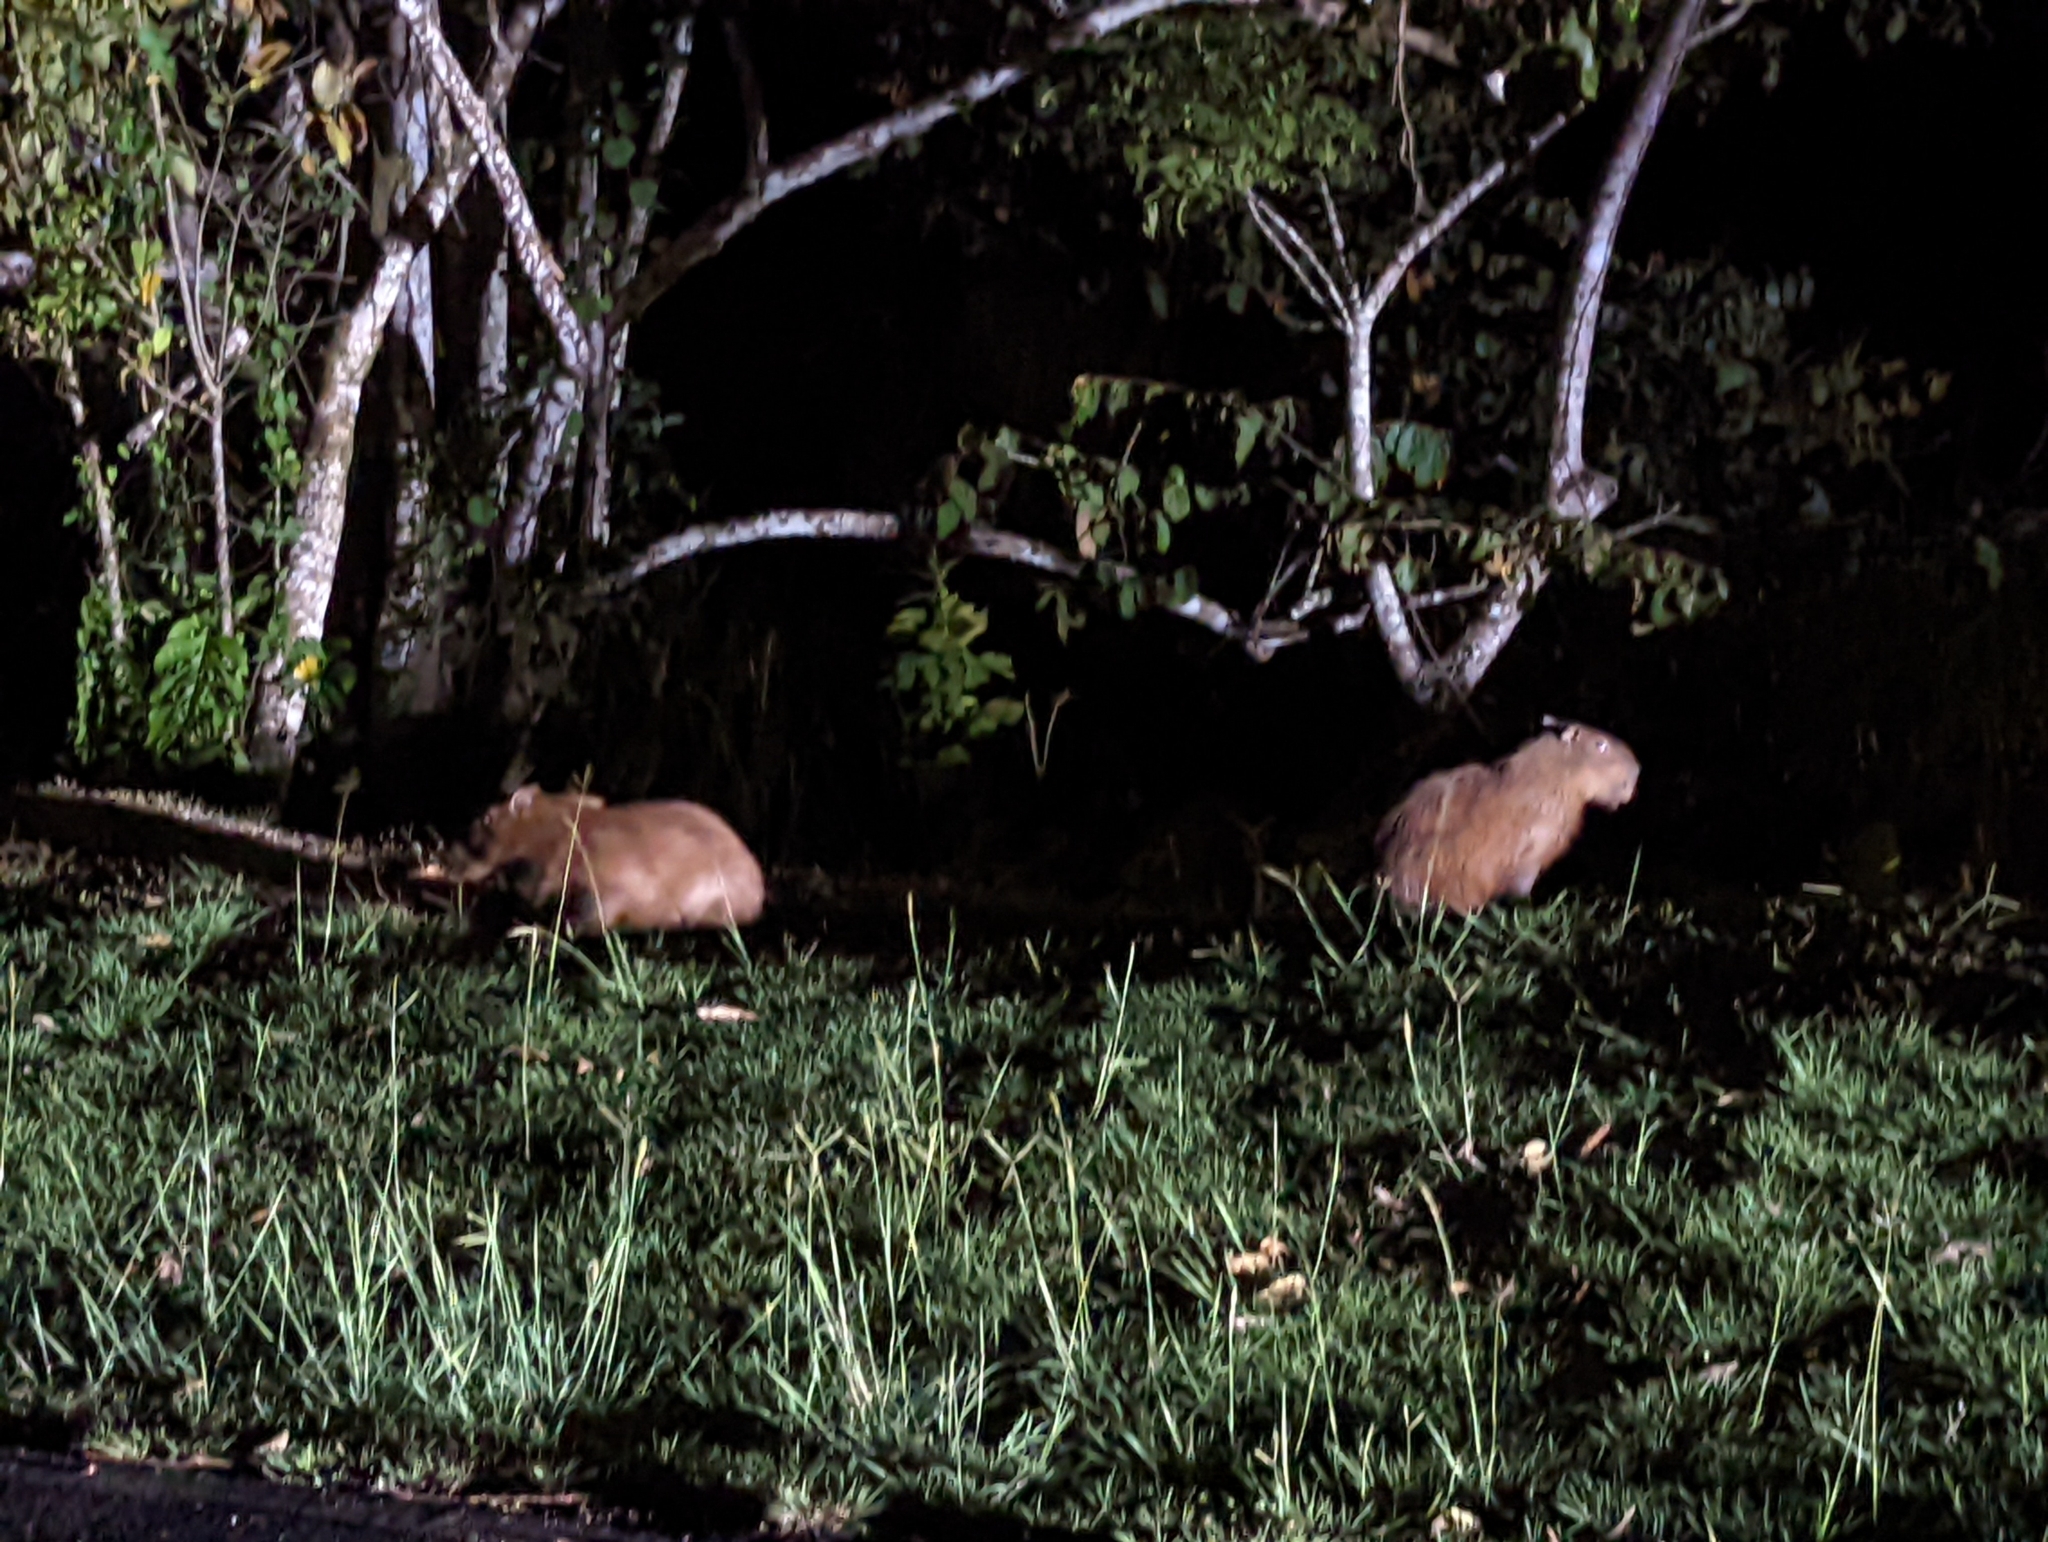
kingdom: Animalia
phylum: Chordata
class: Mammalia
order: Rodentia
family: Caviidae
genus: Hydrochoerus
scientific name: Hydrochoerus isthmius
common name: Lesser capybara
